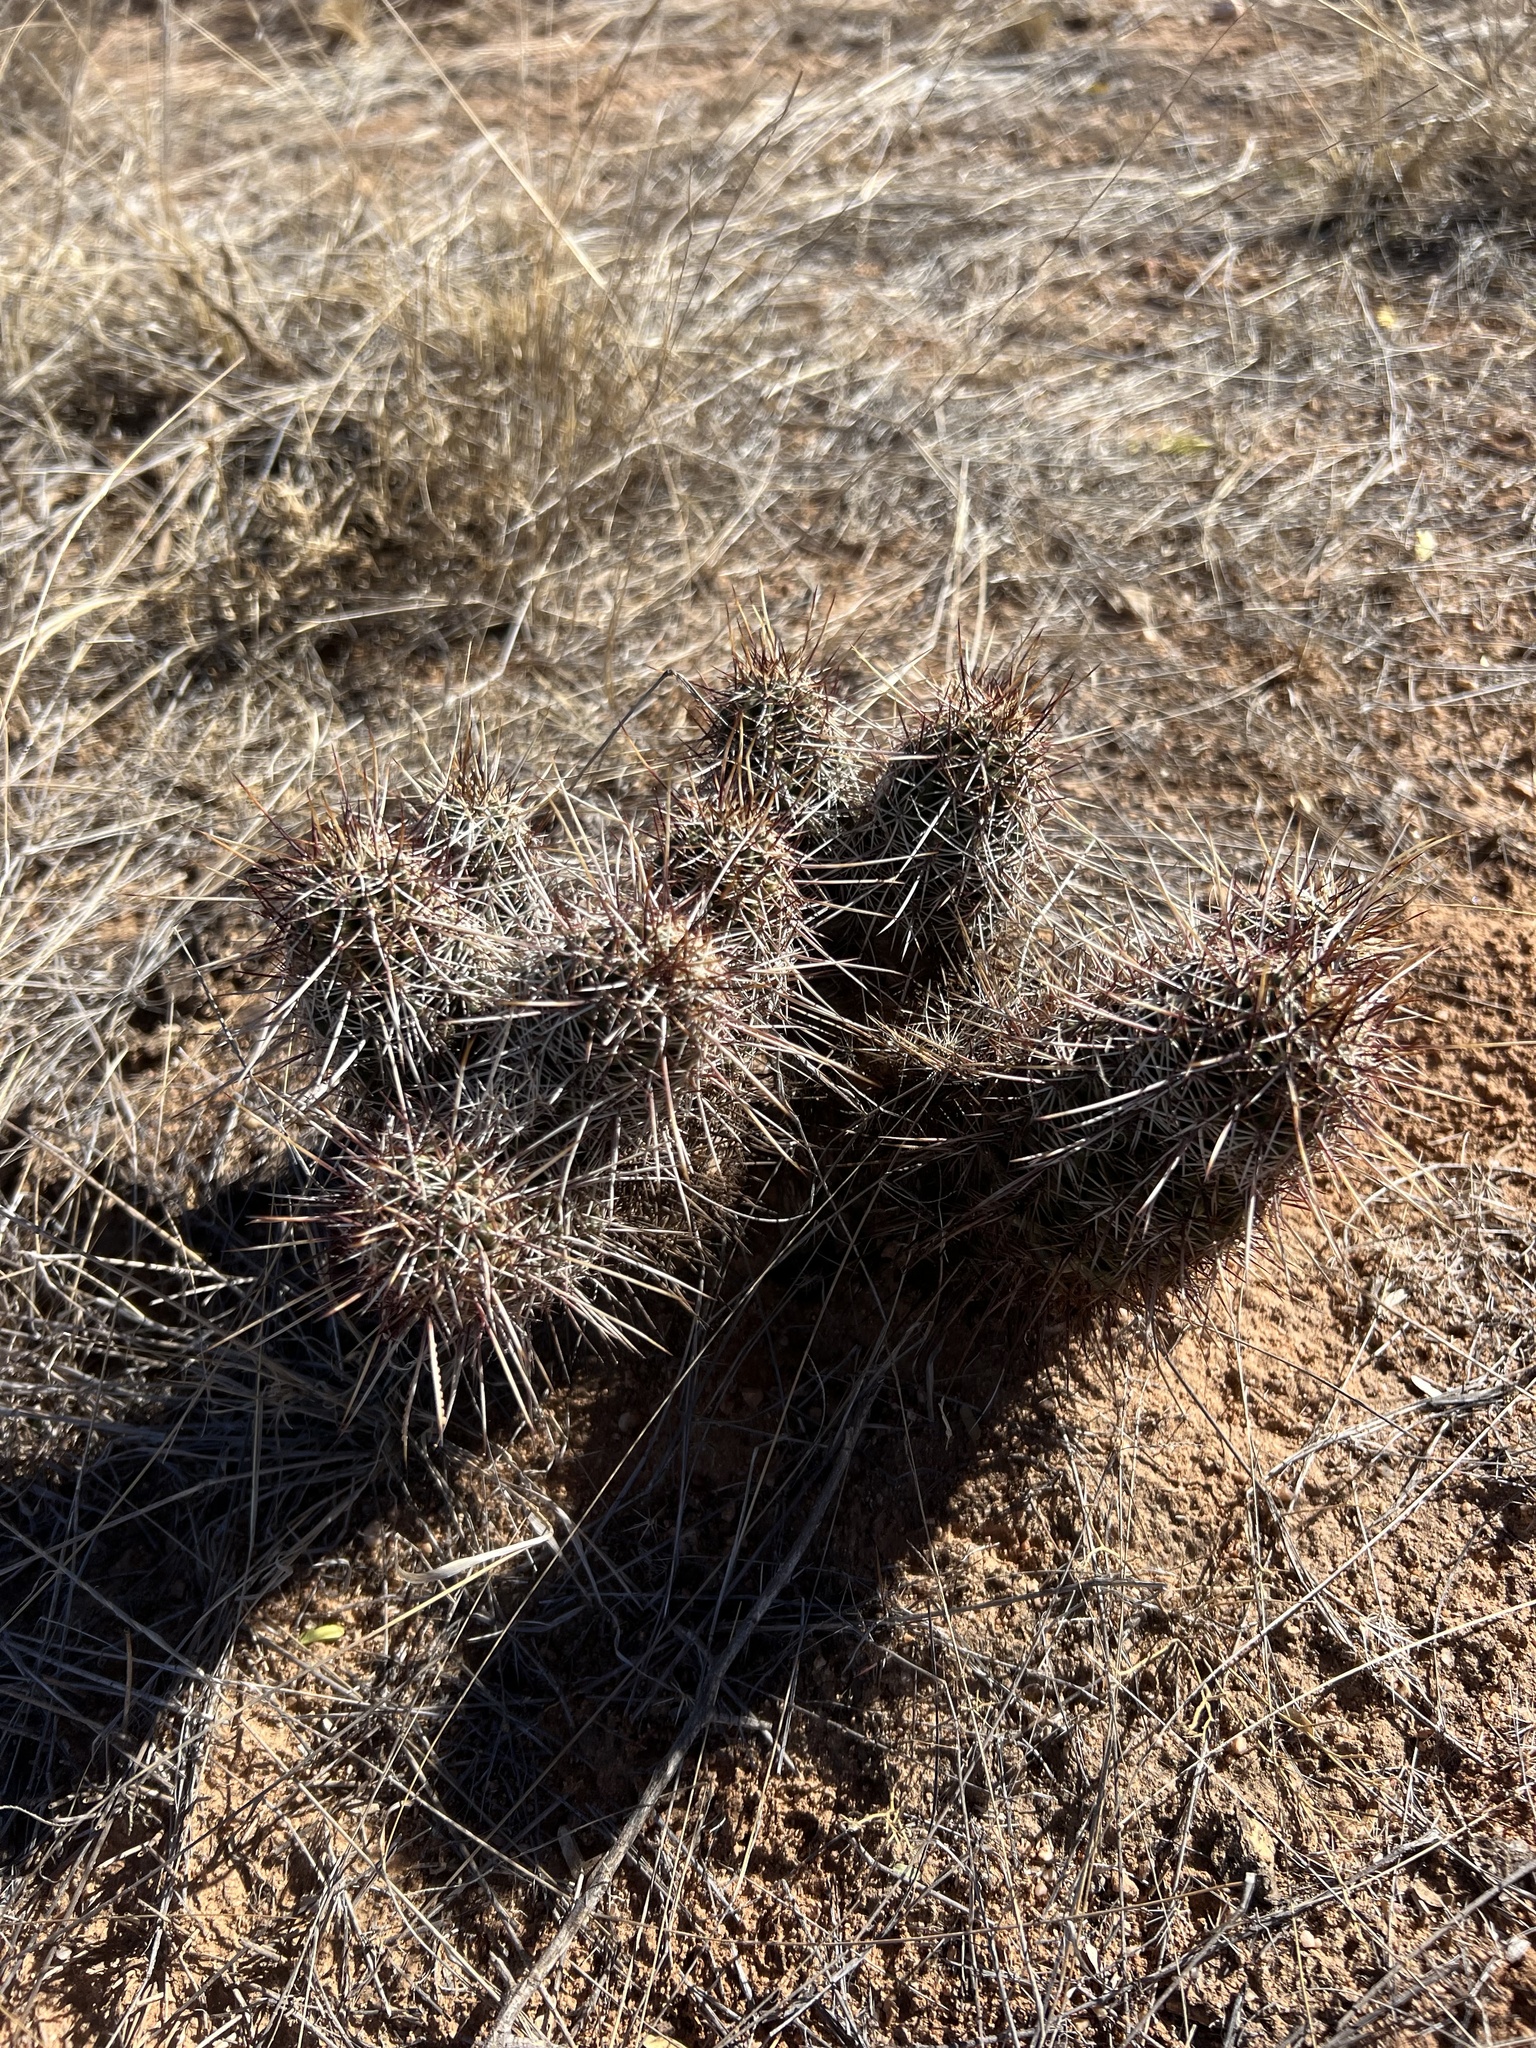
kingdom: Plantae
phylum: Tracheophyta
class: Magnoliopsida
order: Caryophyllales
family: Cactaceae
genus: Echinocereus
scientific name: Echinocereus fasciculatus
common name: Bundle hedgehog
